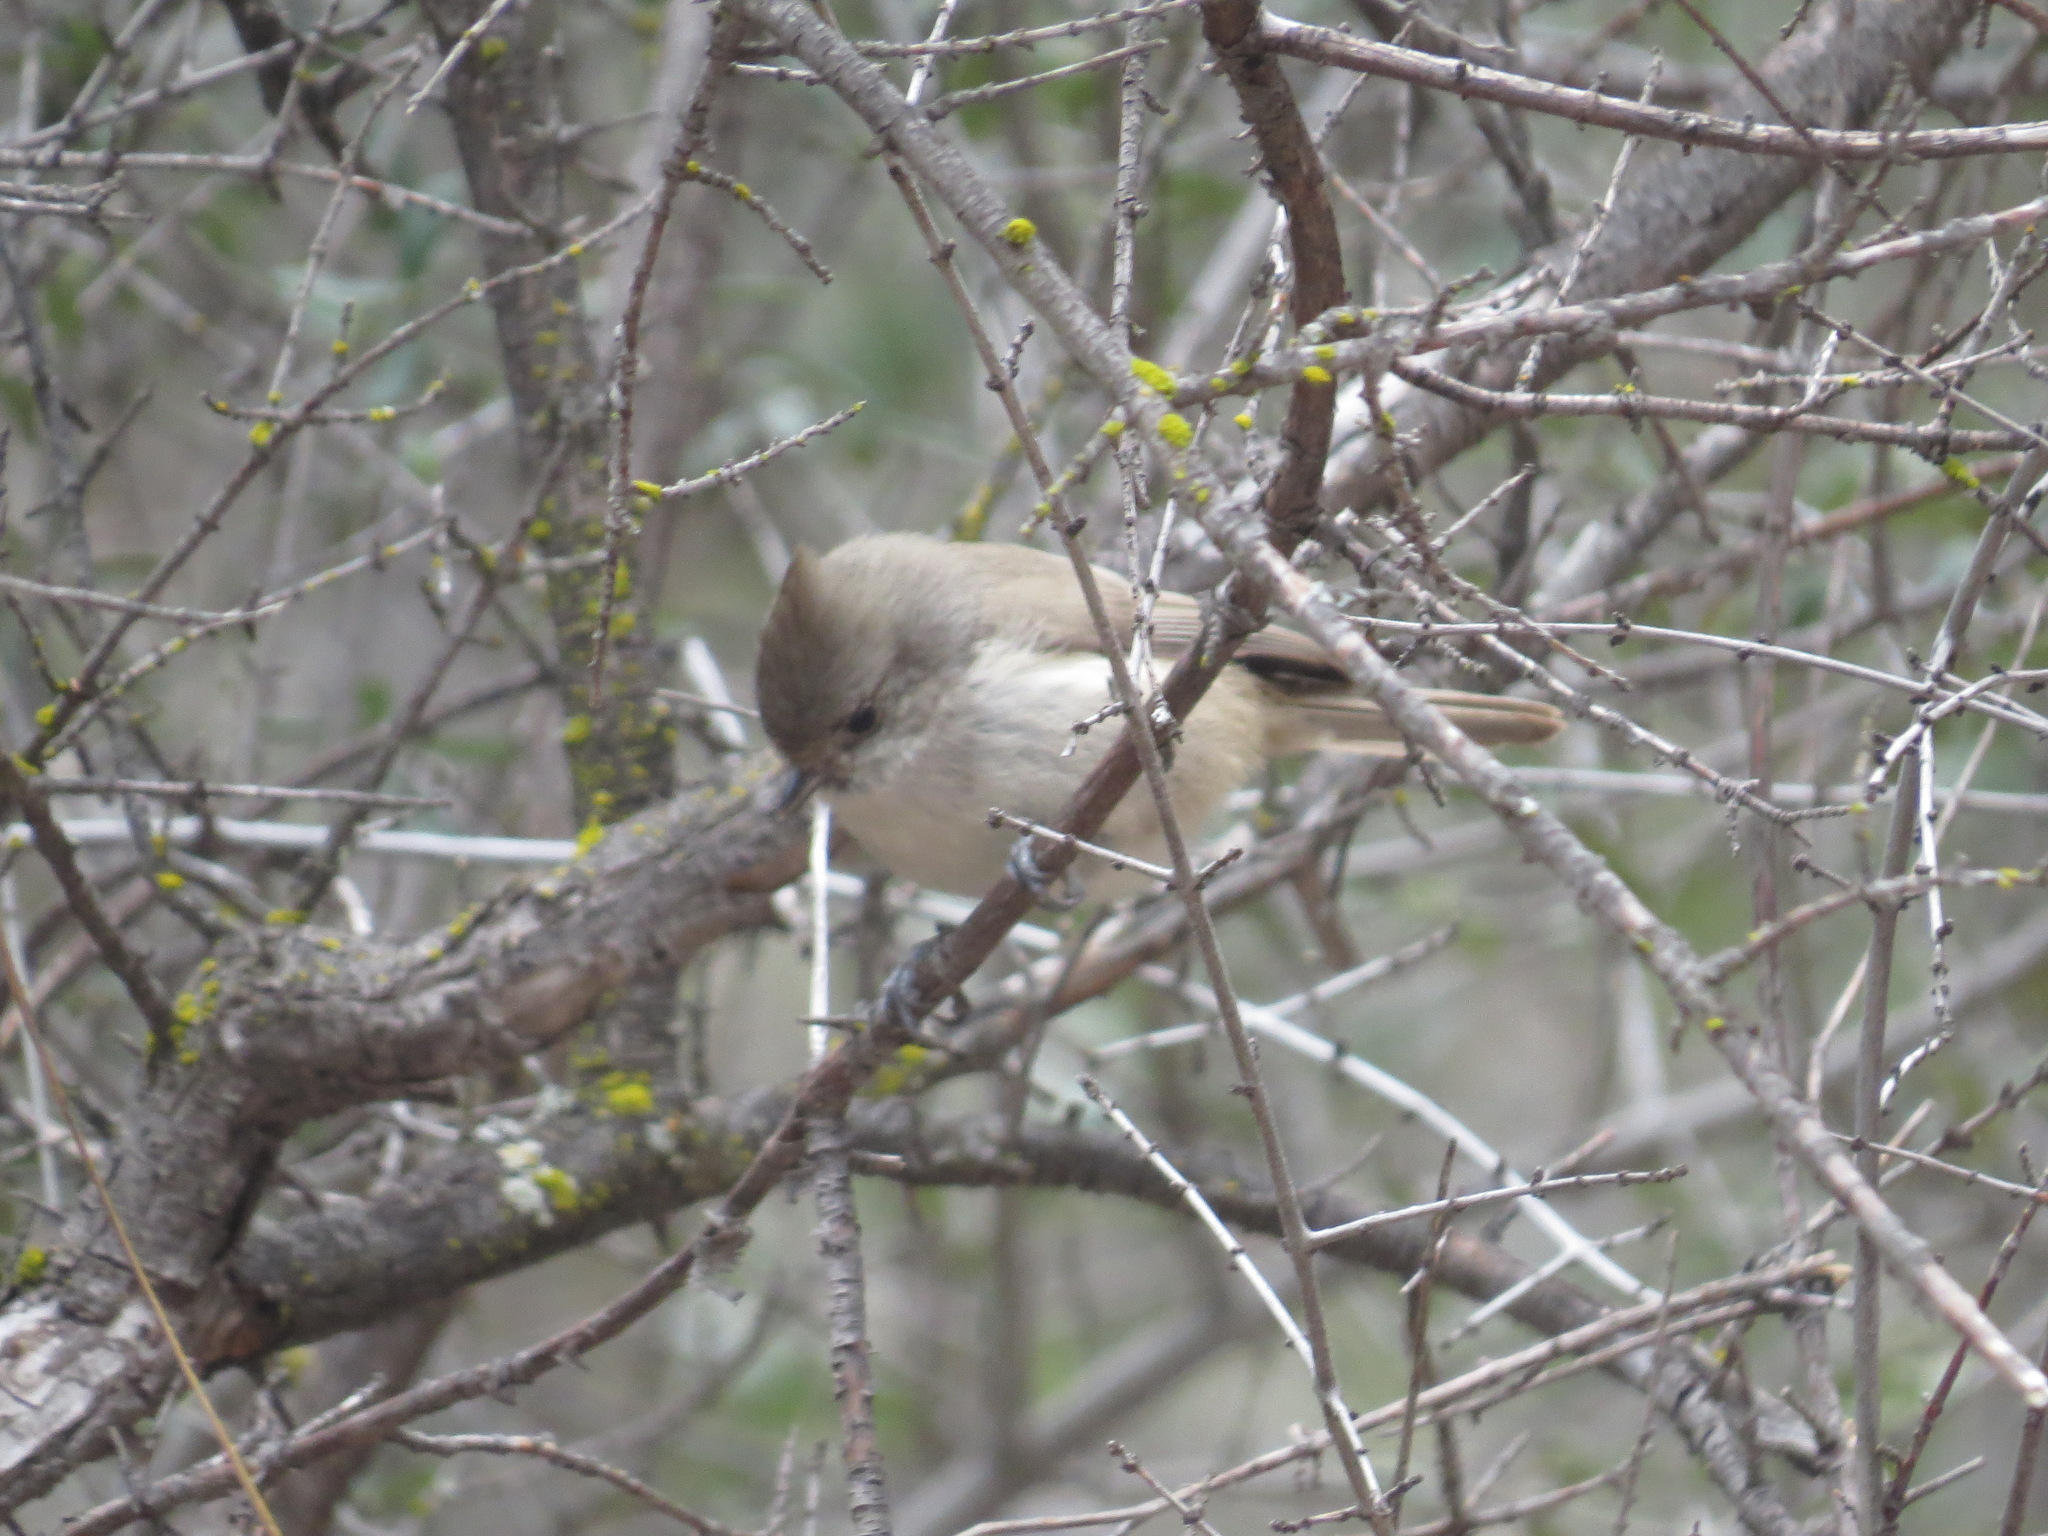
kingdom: Animalia
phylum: Chordata
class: Aves
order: Passeriformes
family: Paridae
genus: Baeolophus
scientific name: Baeolophus inornatus
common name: Oak titmouse
